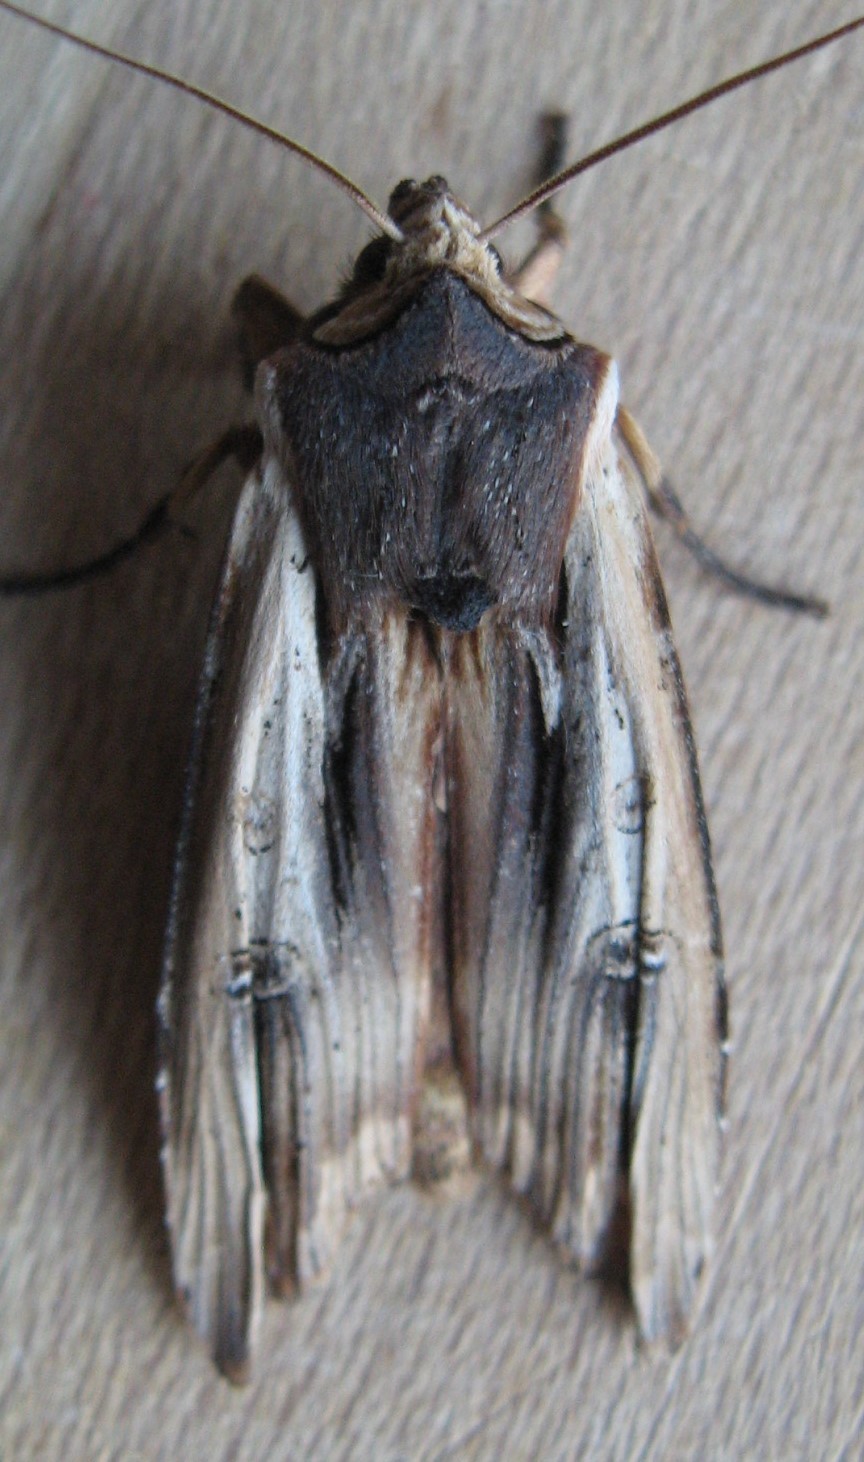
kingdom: Animalia
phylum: Arthropoda
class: Insecta
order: Lepidoptera
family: Noctuidae
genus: Xylena
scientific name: Xylena nupera
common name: American swordgrass moth
